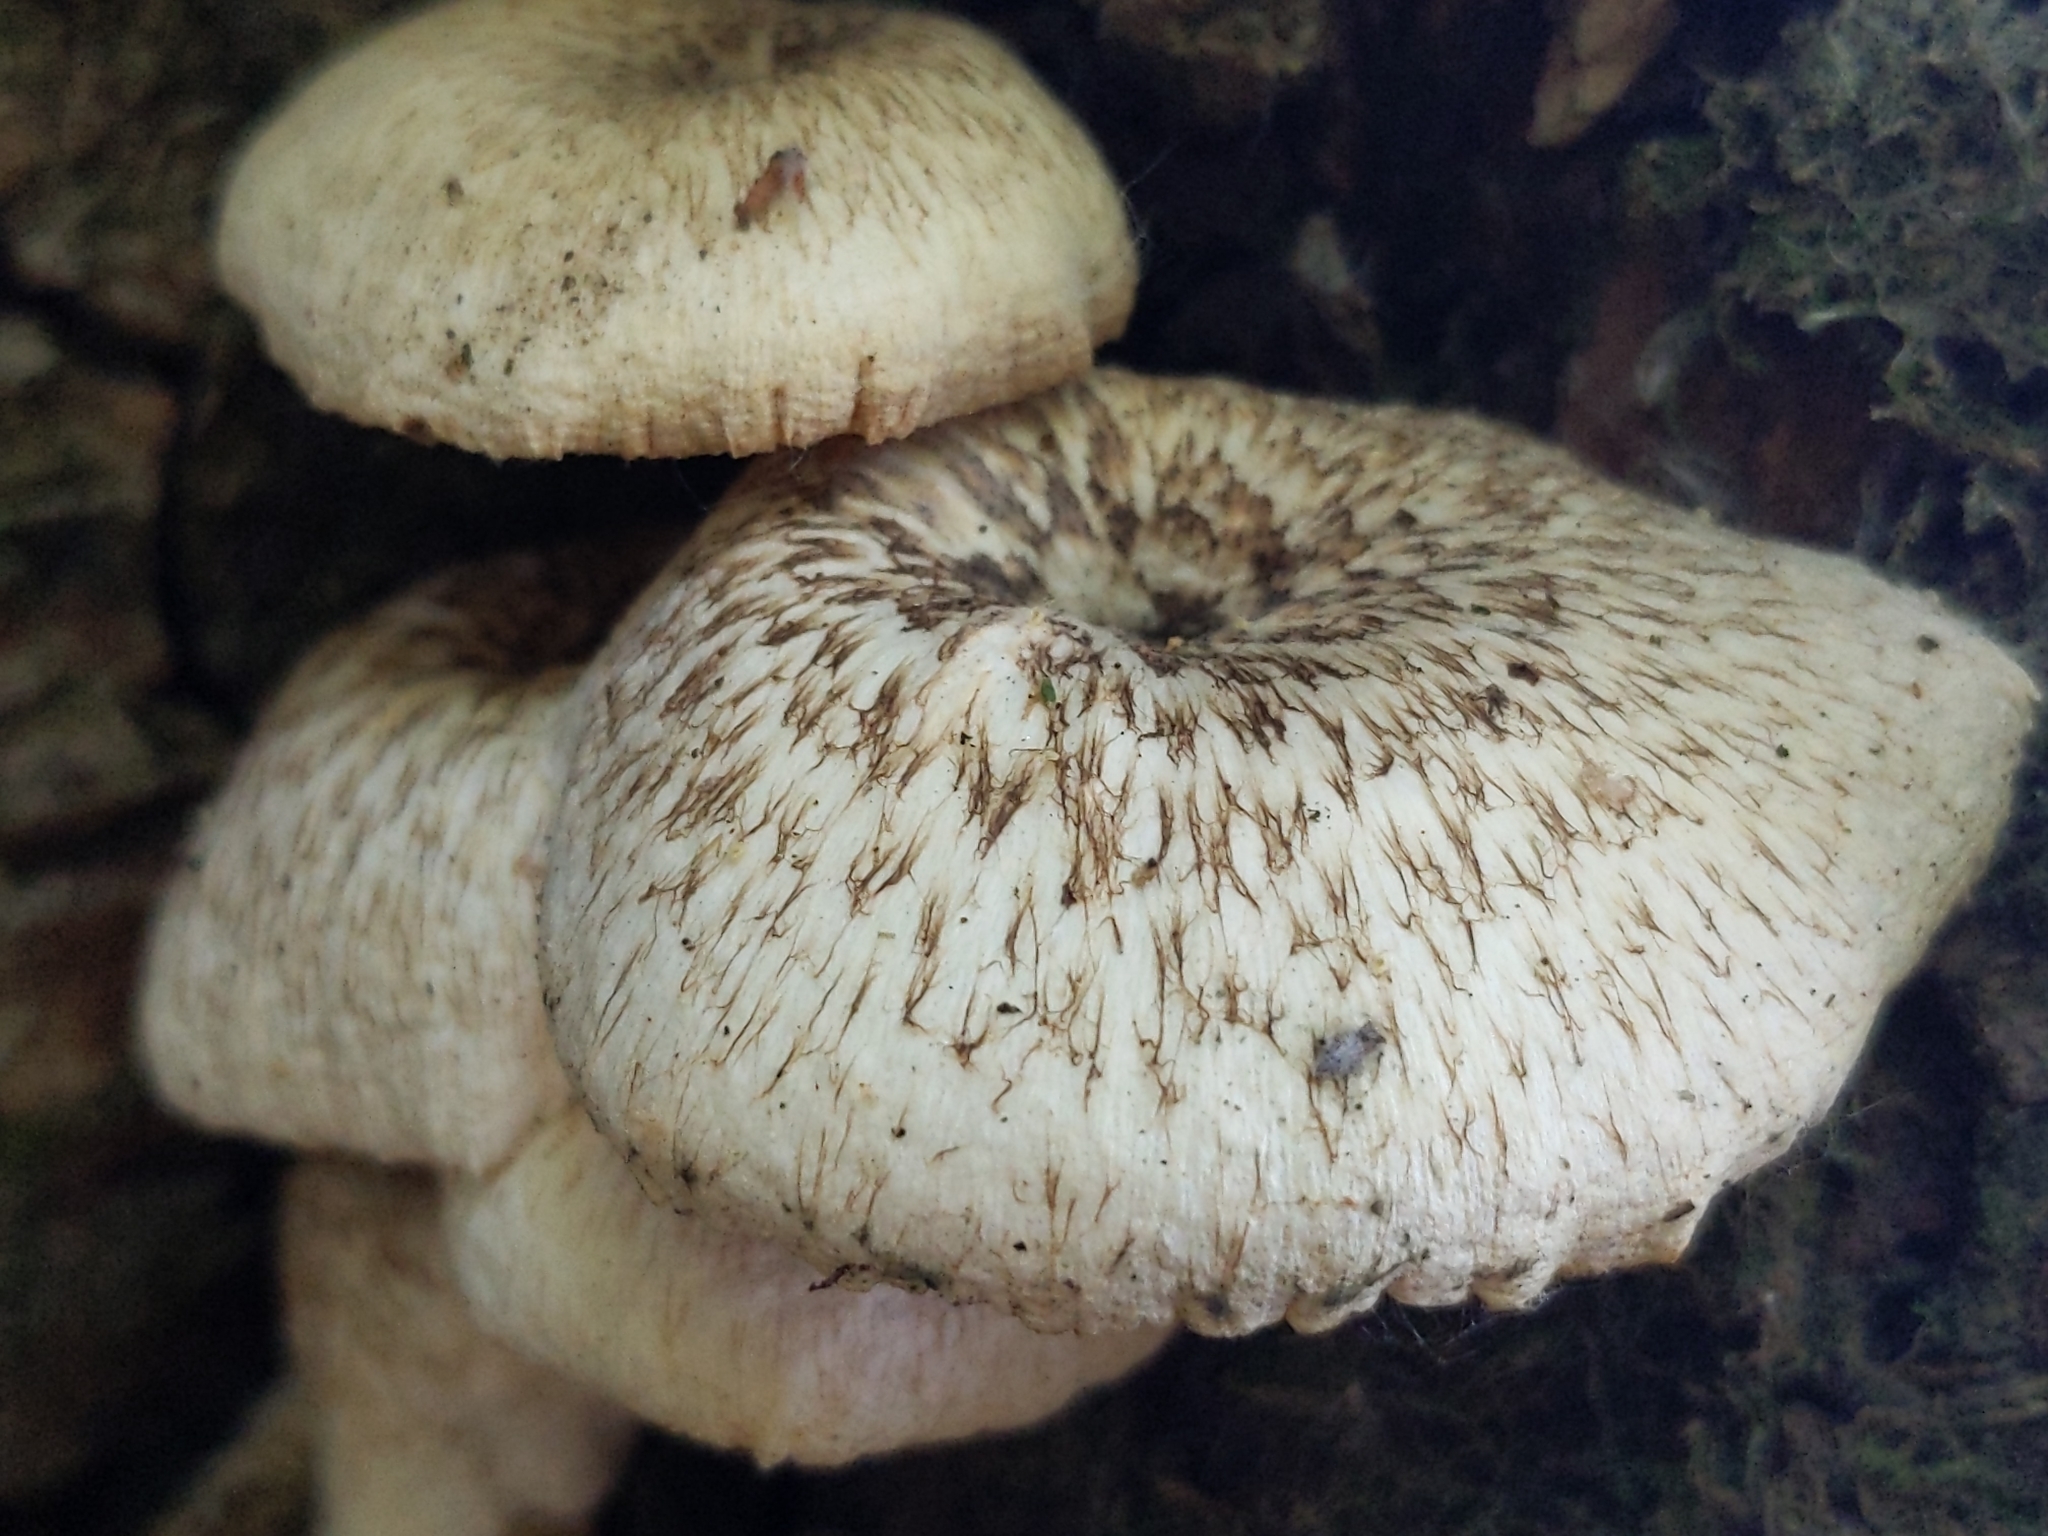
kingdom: Fungi
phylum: Basidiomycota
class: Agaricomycetes
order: Polyporales
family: Polyporaceae
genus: Lentinus
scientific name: Lentinus tigrinus
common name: Tiger sawgill
